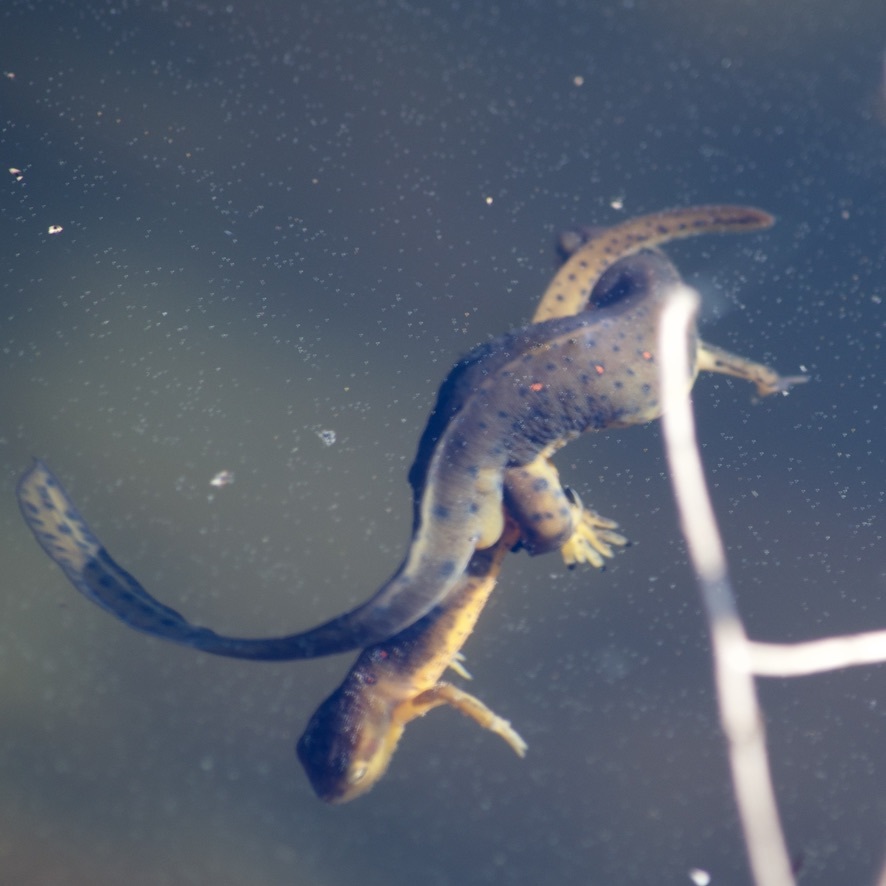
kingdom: Animalia
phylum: Chordata
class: Amphibia
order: Caudata
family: Salamandridae
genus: Notophthalmus
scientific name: Notophthalmus viridescens
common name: Eastern newt
